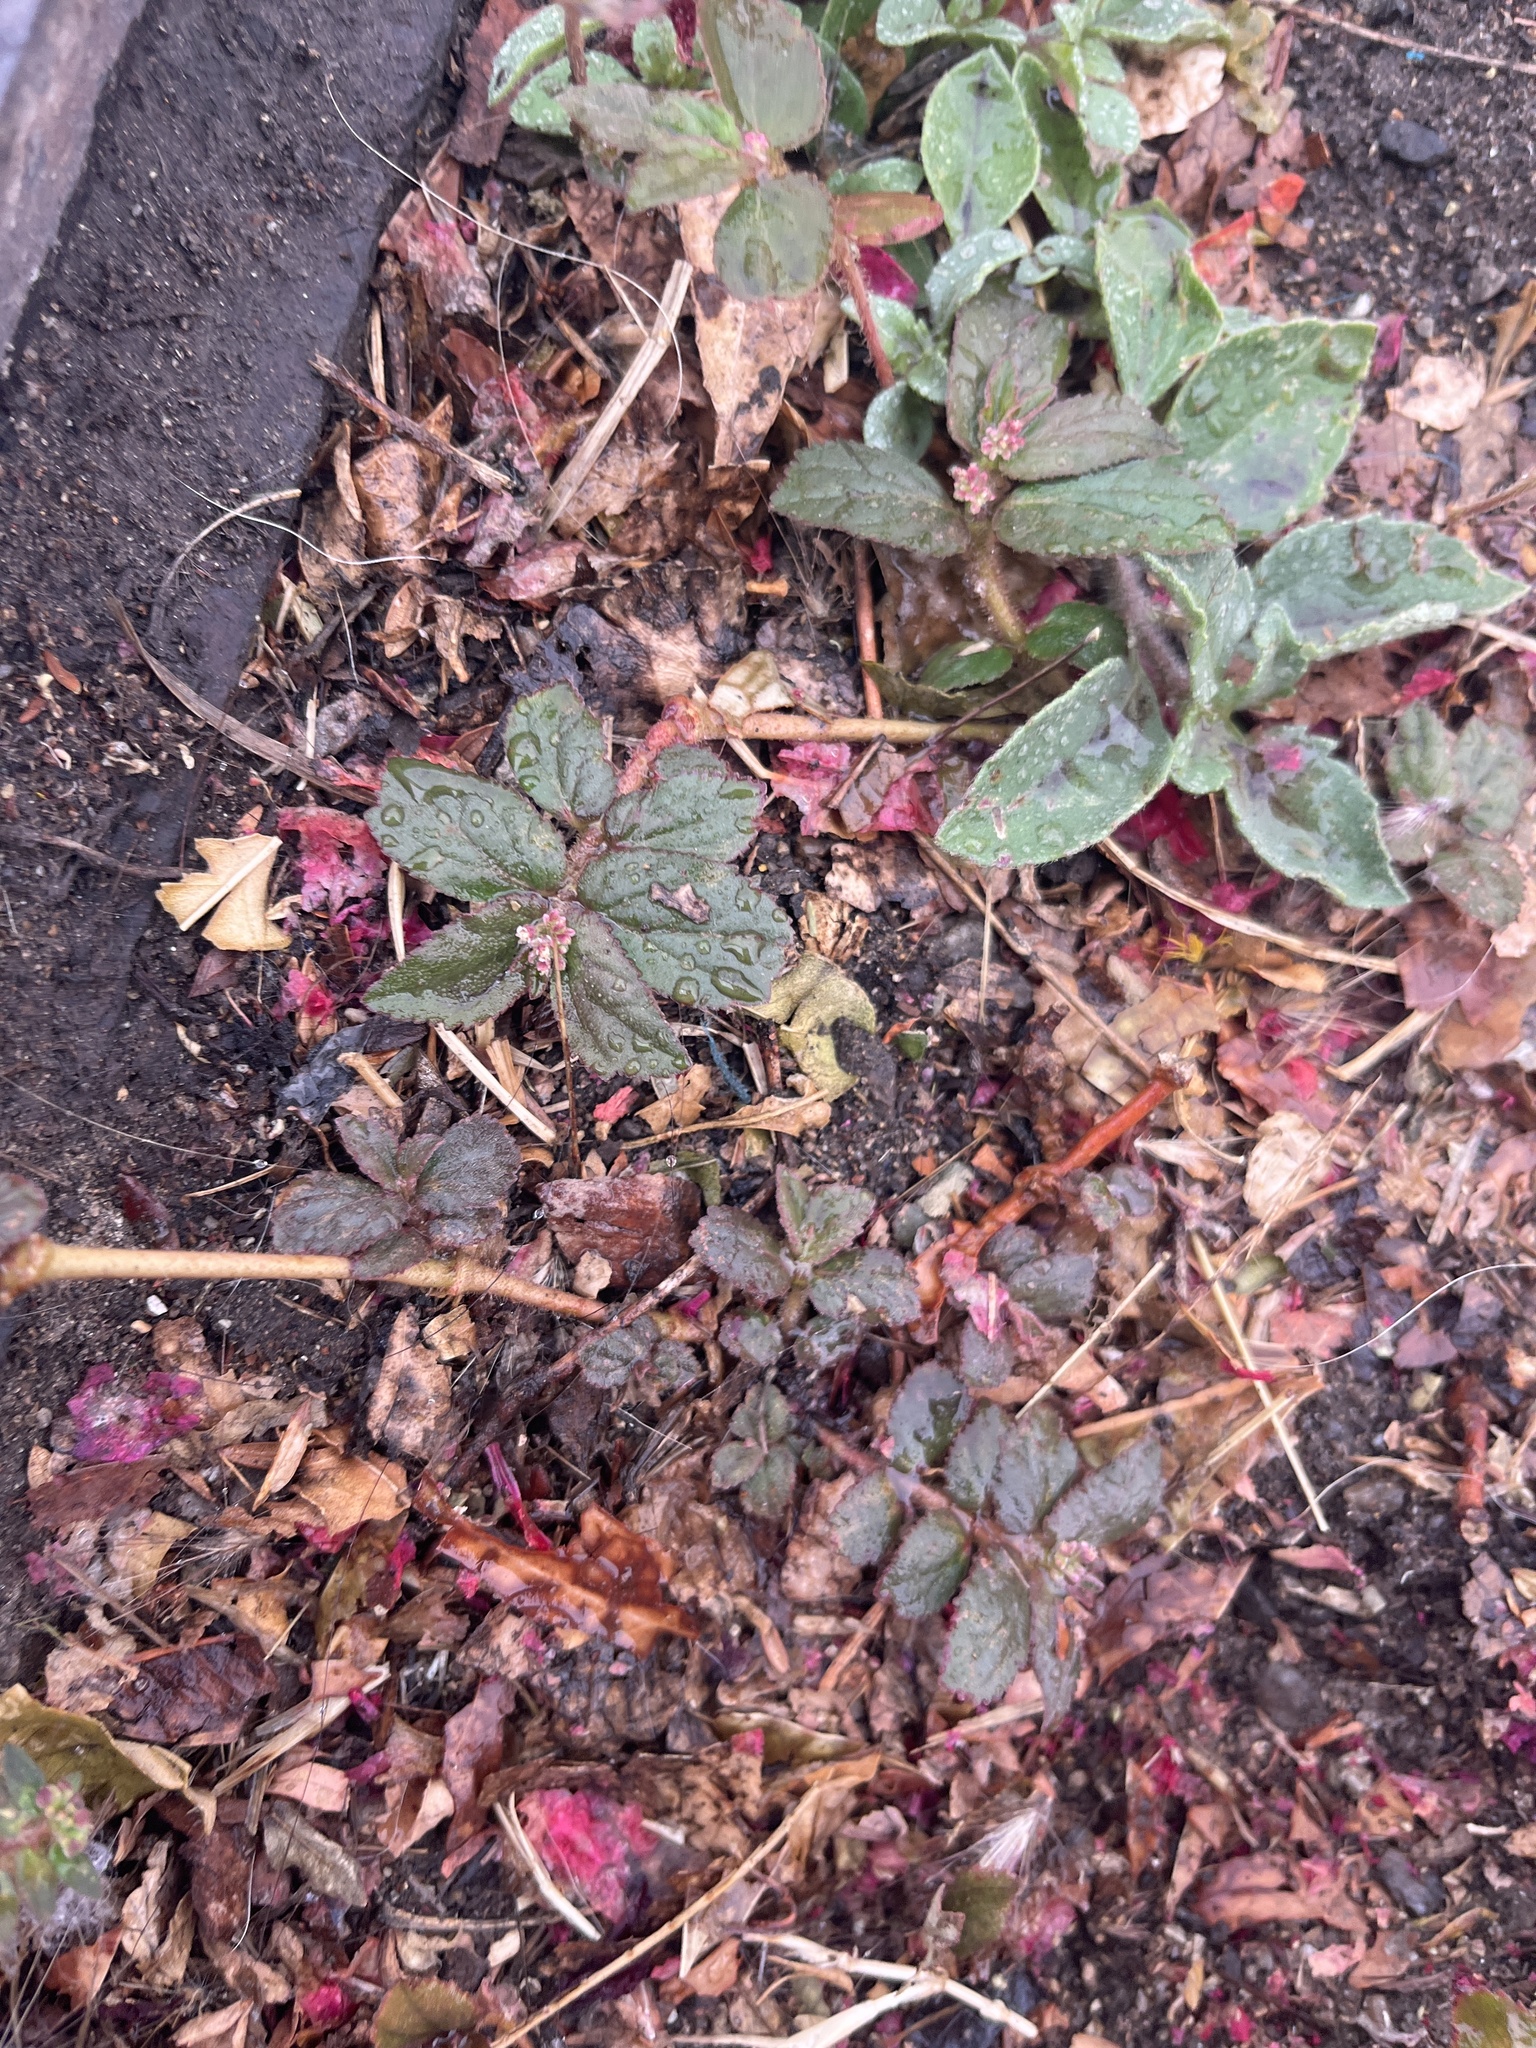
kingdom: Plantae
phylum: Tracheophyta
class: Magnoliopsida
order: Malpighiales
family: Euphorbiaceae
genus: Euphorbia
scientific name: Euphorbia hirta
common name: Pillpod sandmat
